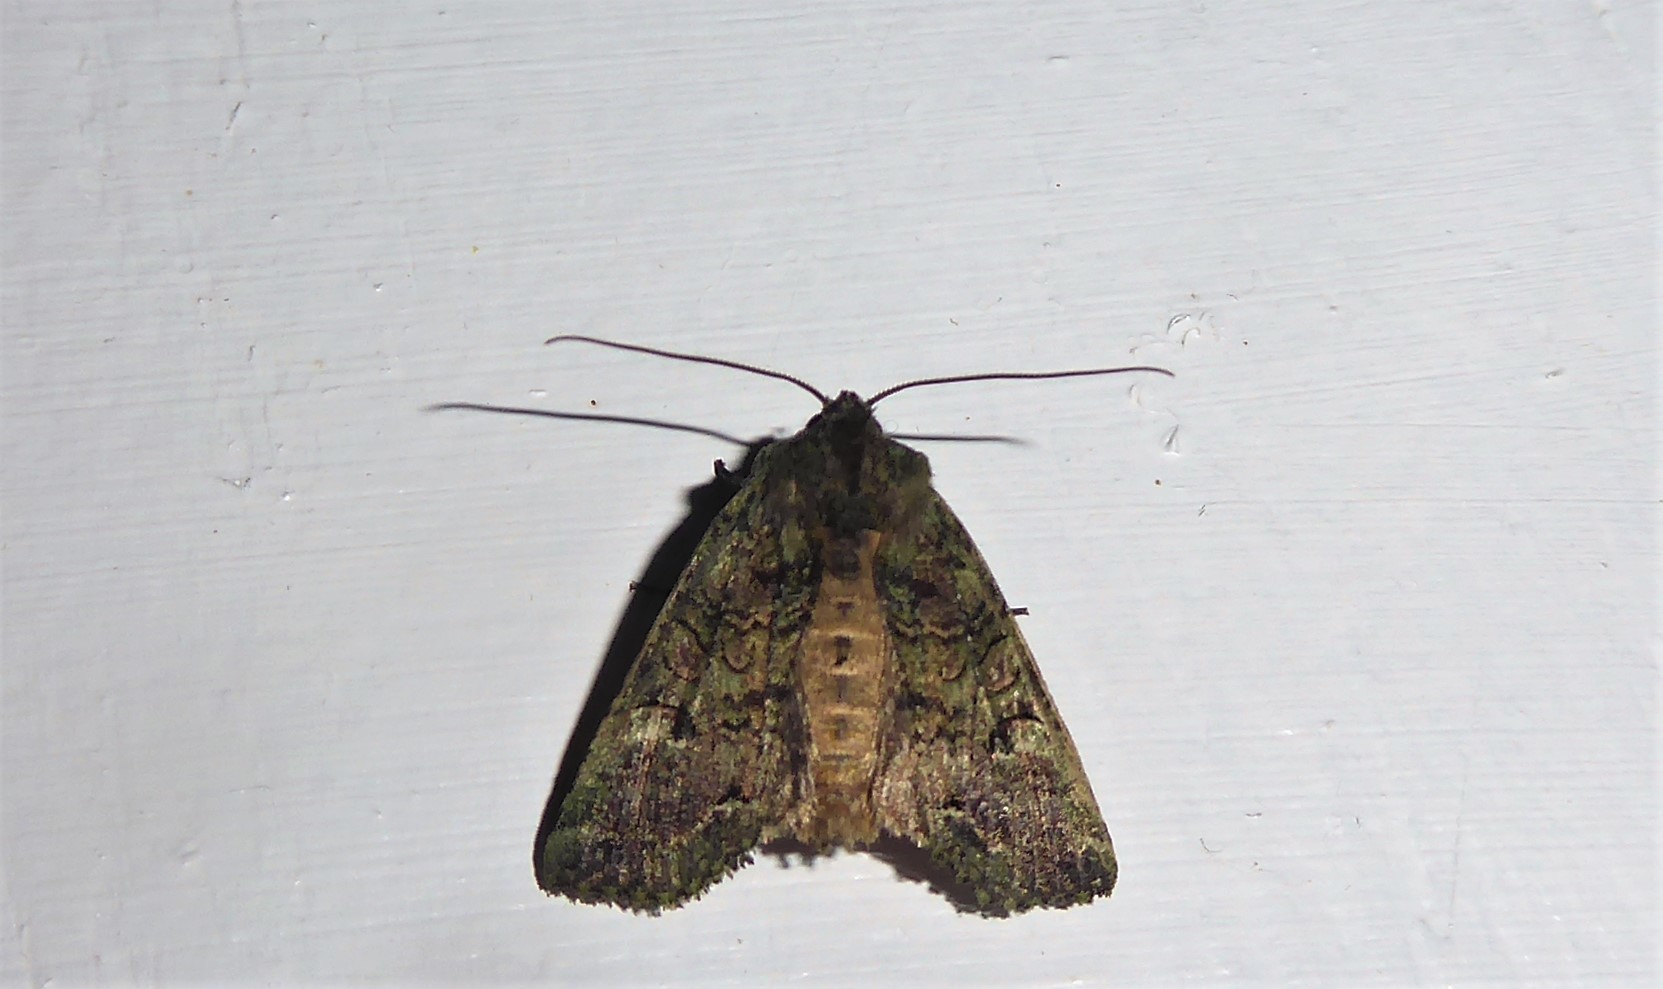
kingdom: Animalia
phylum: Arthropoda
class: Insecta
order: Lepidoptera
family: Noctuidae
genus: Meterana
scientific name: Meterana levis
